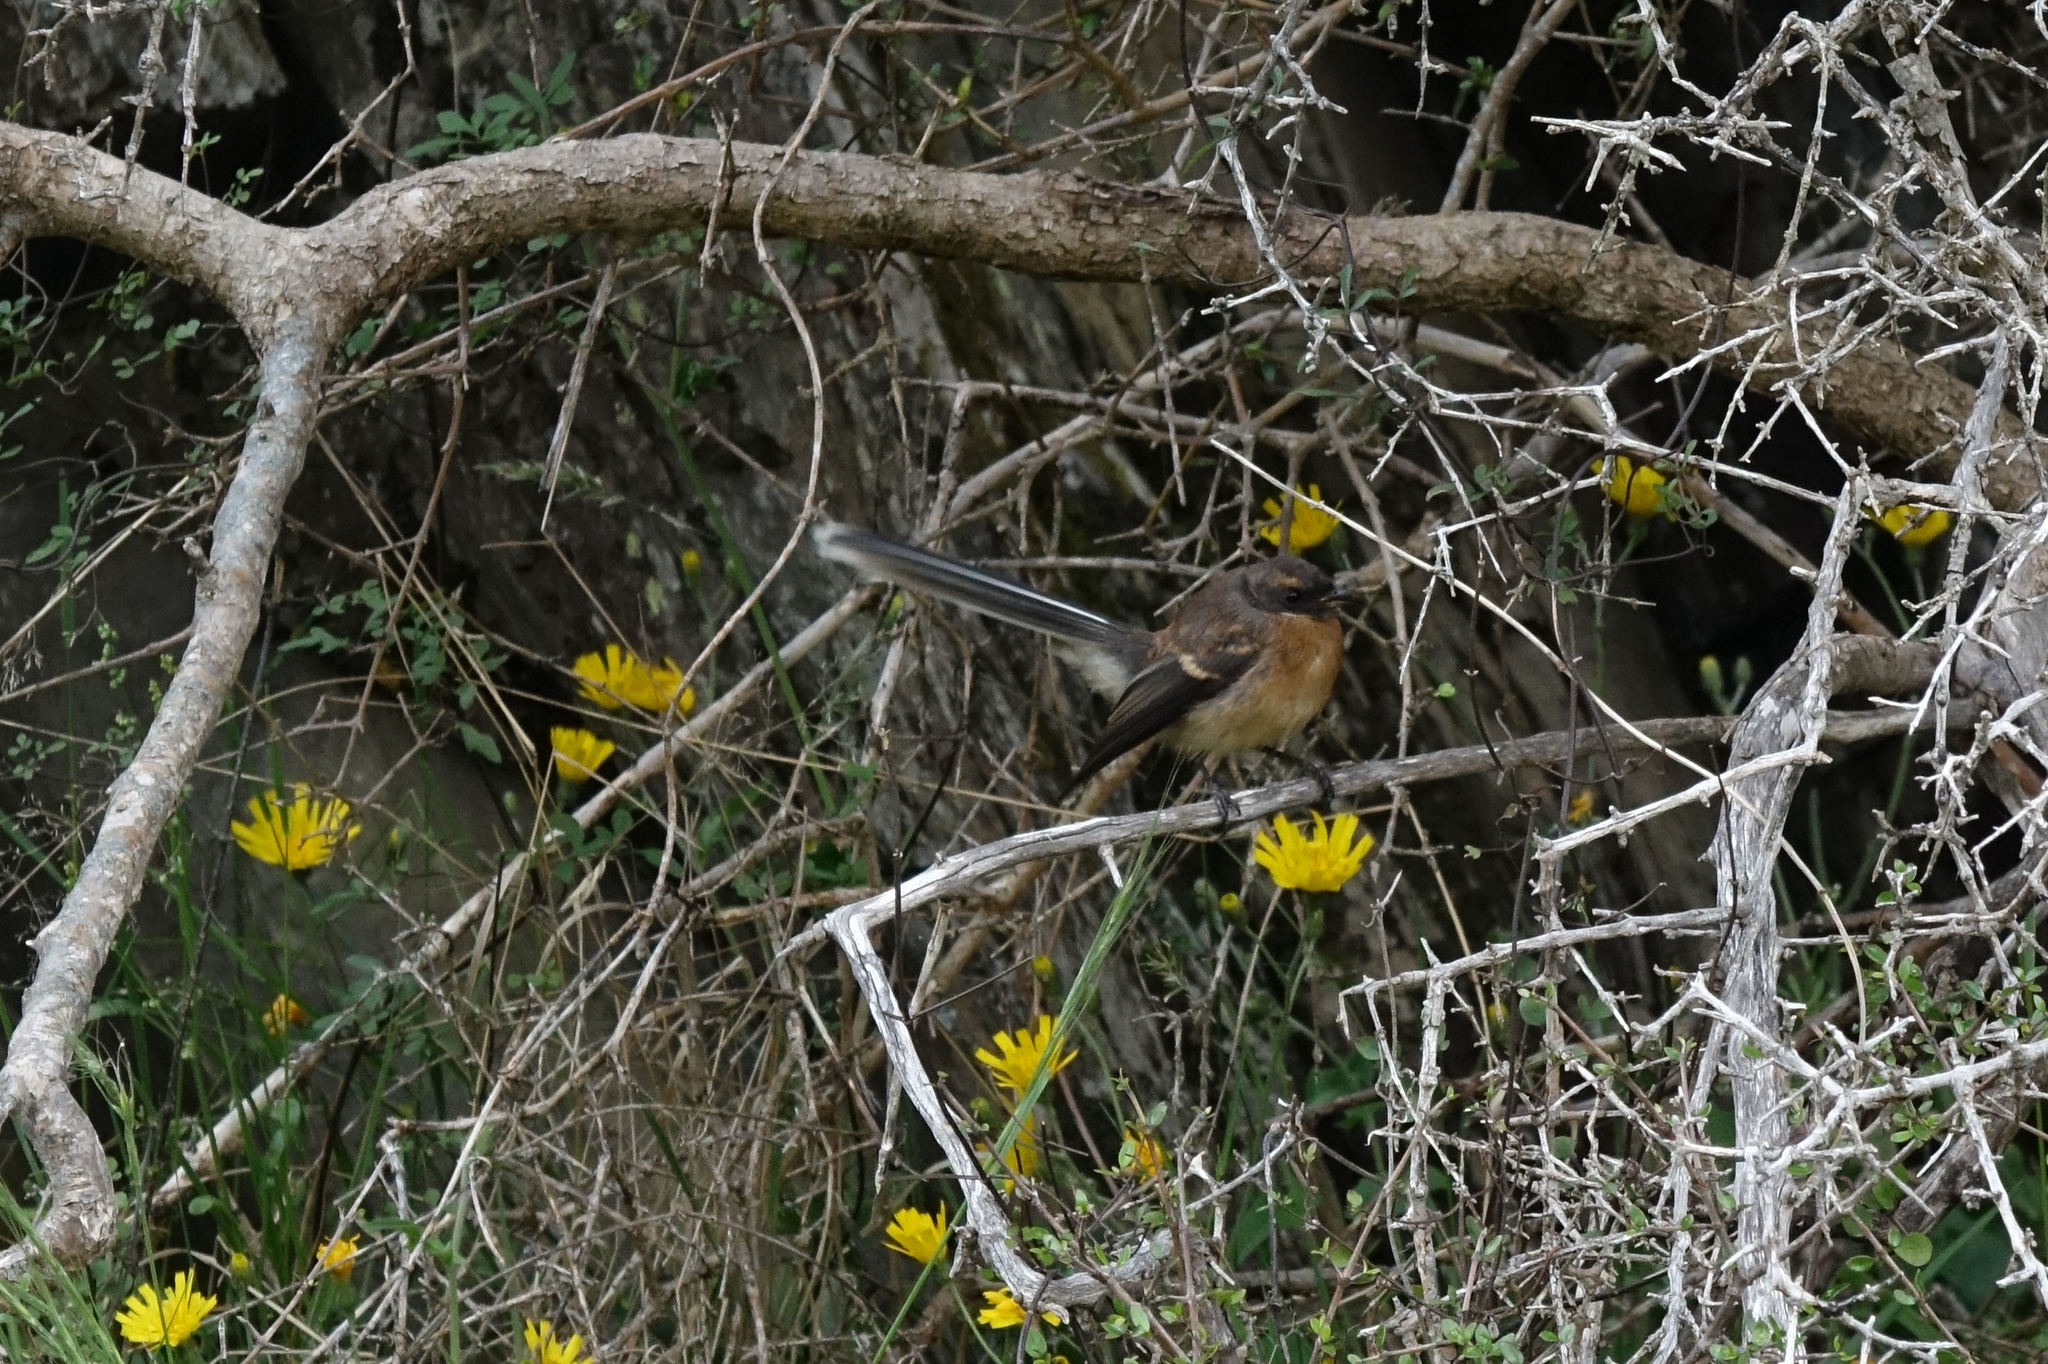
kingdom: Animalia
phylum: Chordata
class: Aves
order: Passeriformes
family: Rhipiduridae
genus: Rhipidura
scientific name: Rhipidura fuliginosa
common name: New zealand fantail
